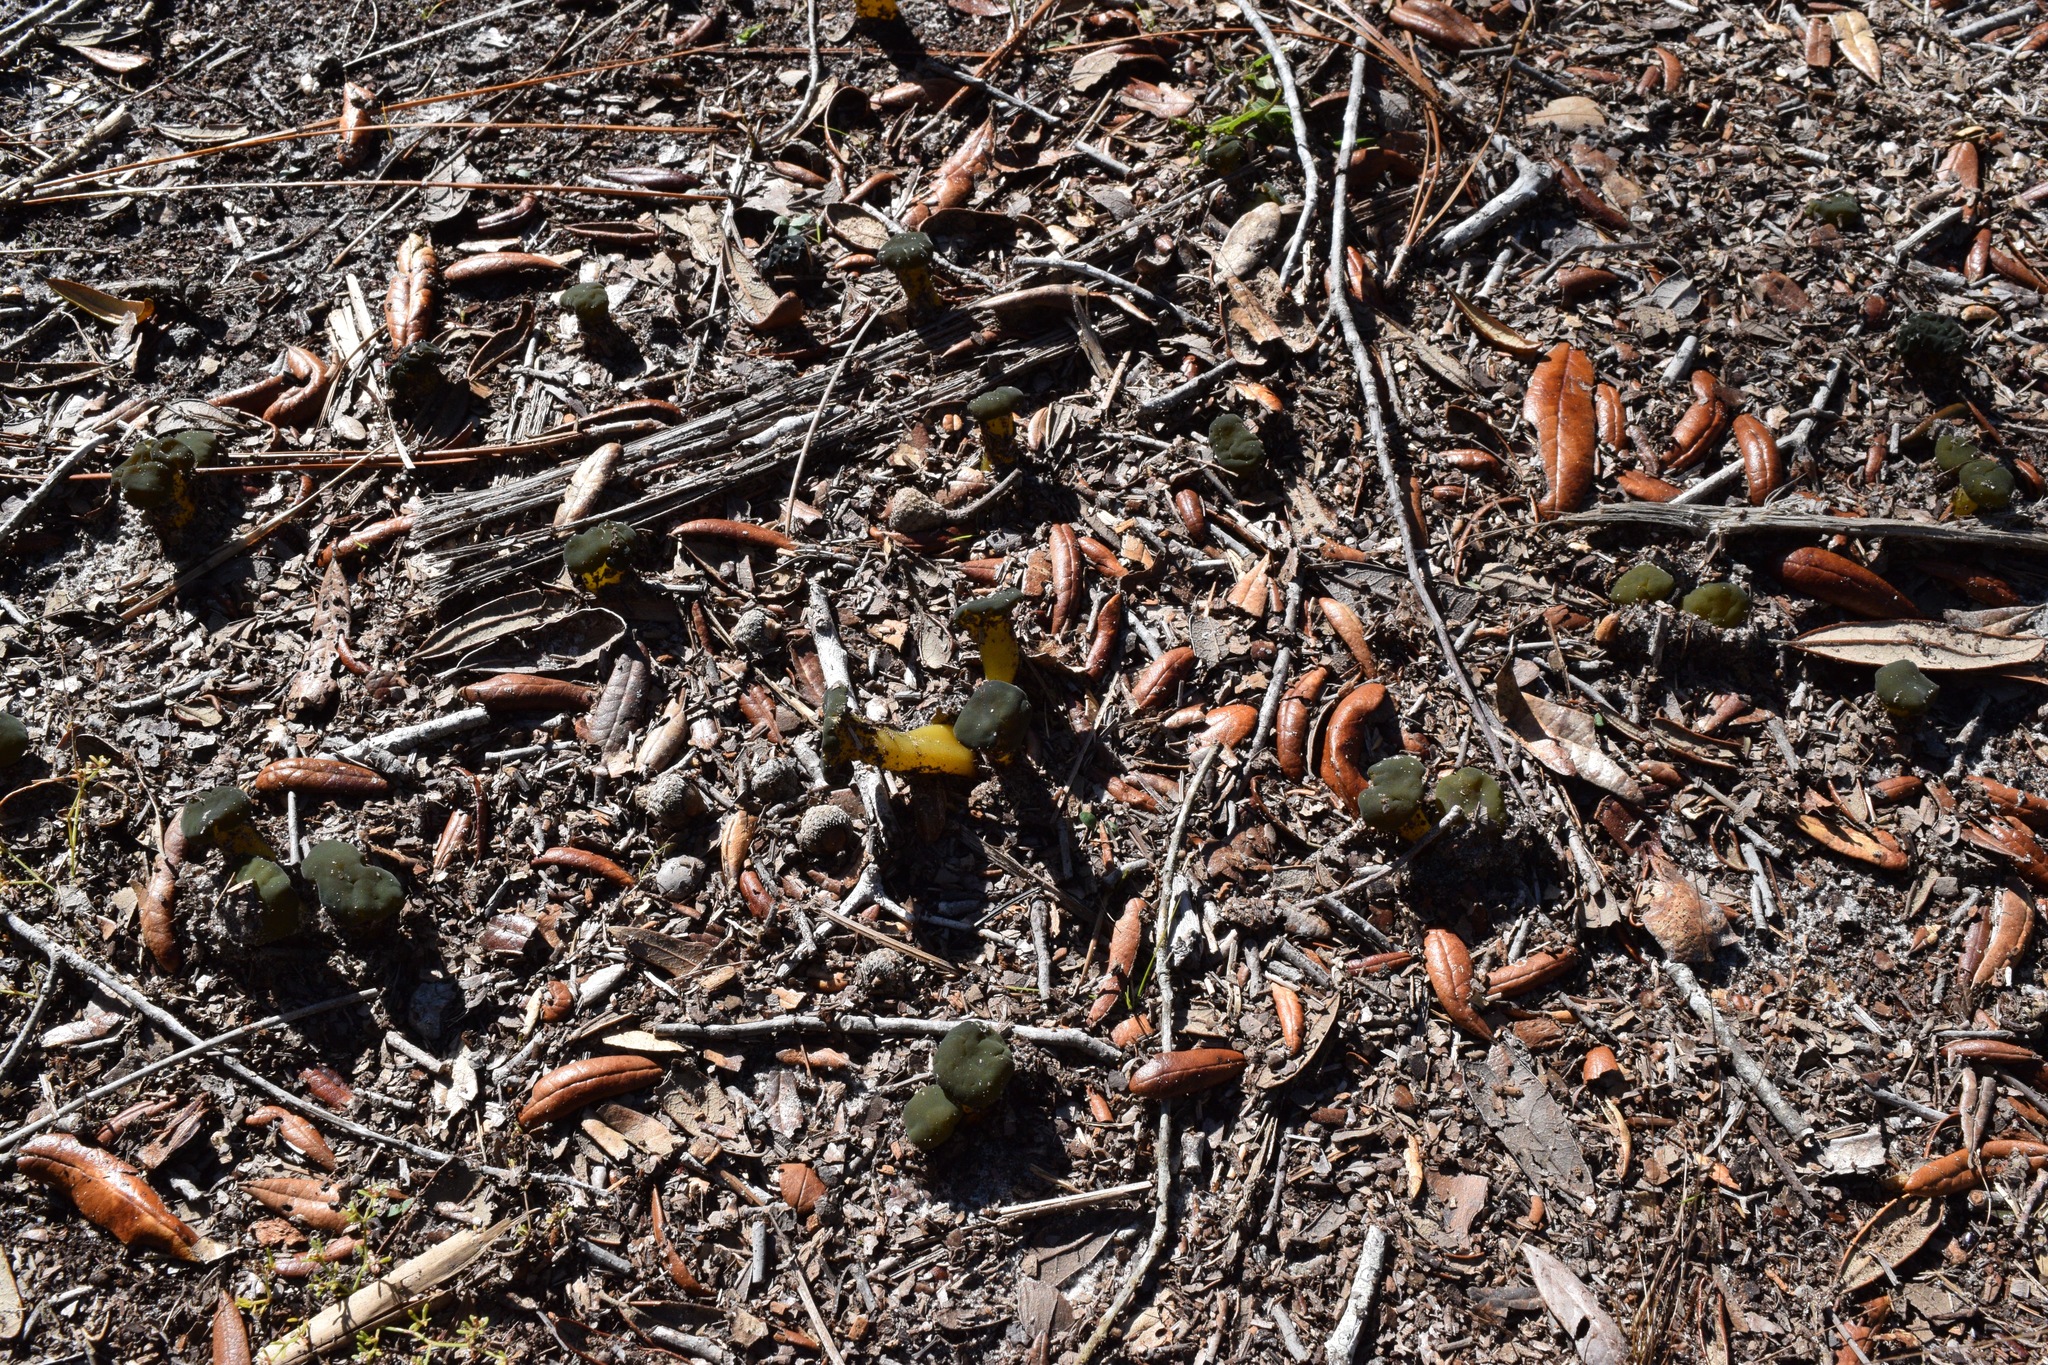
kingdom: Fungi
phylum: Ascomycota
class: Leotiomycetes
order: Leotiales
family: Leotiaceae
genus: Leotia
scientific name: Leotia lubrica
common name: Jellybaby
